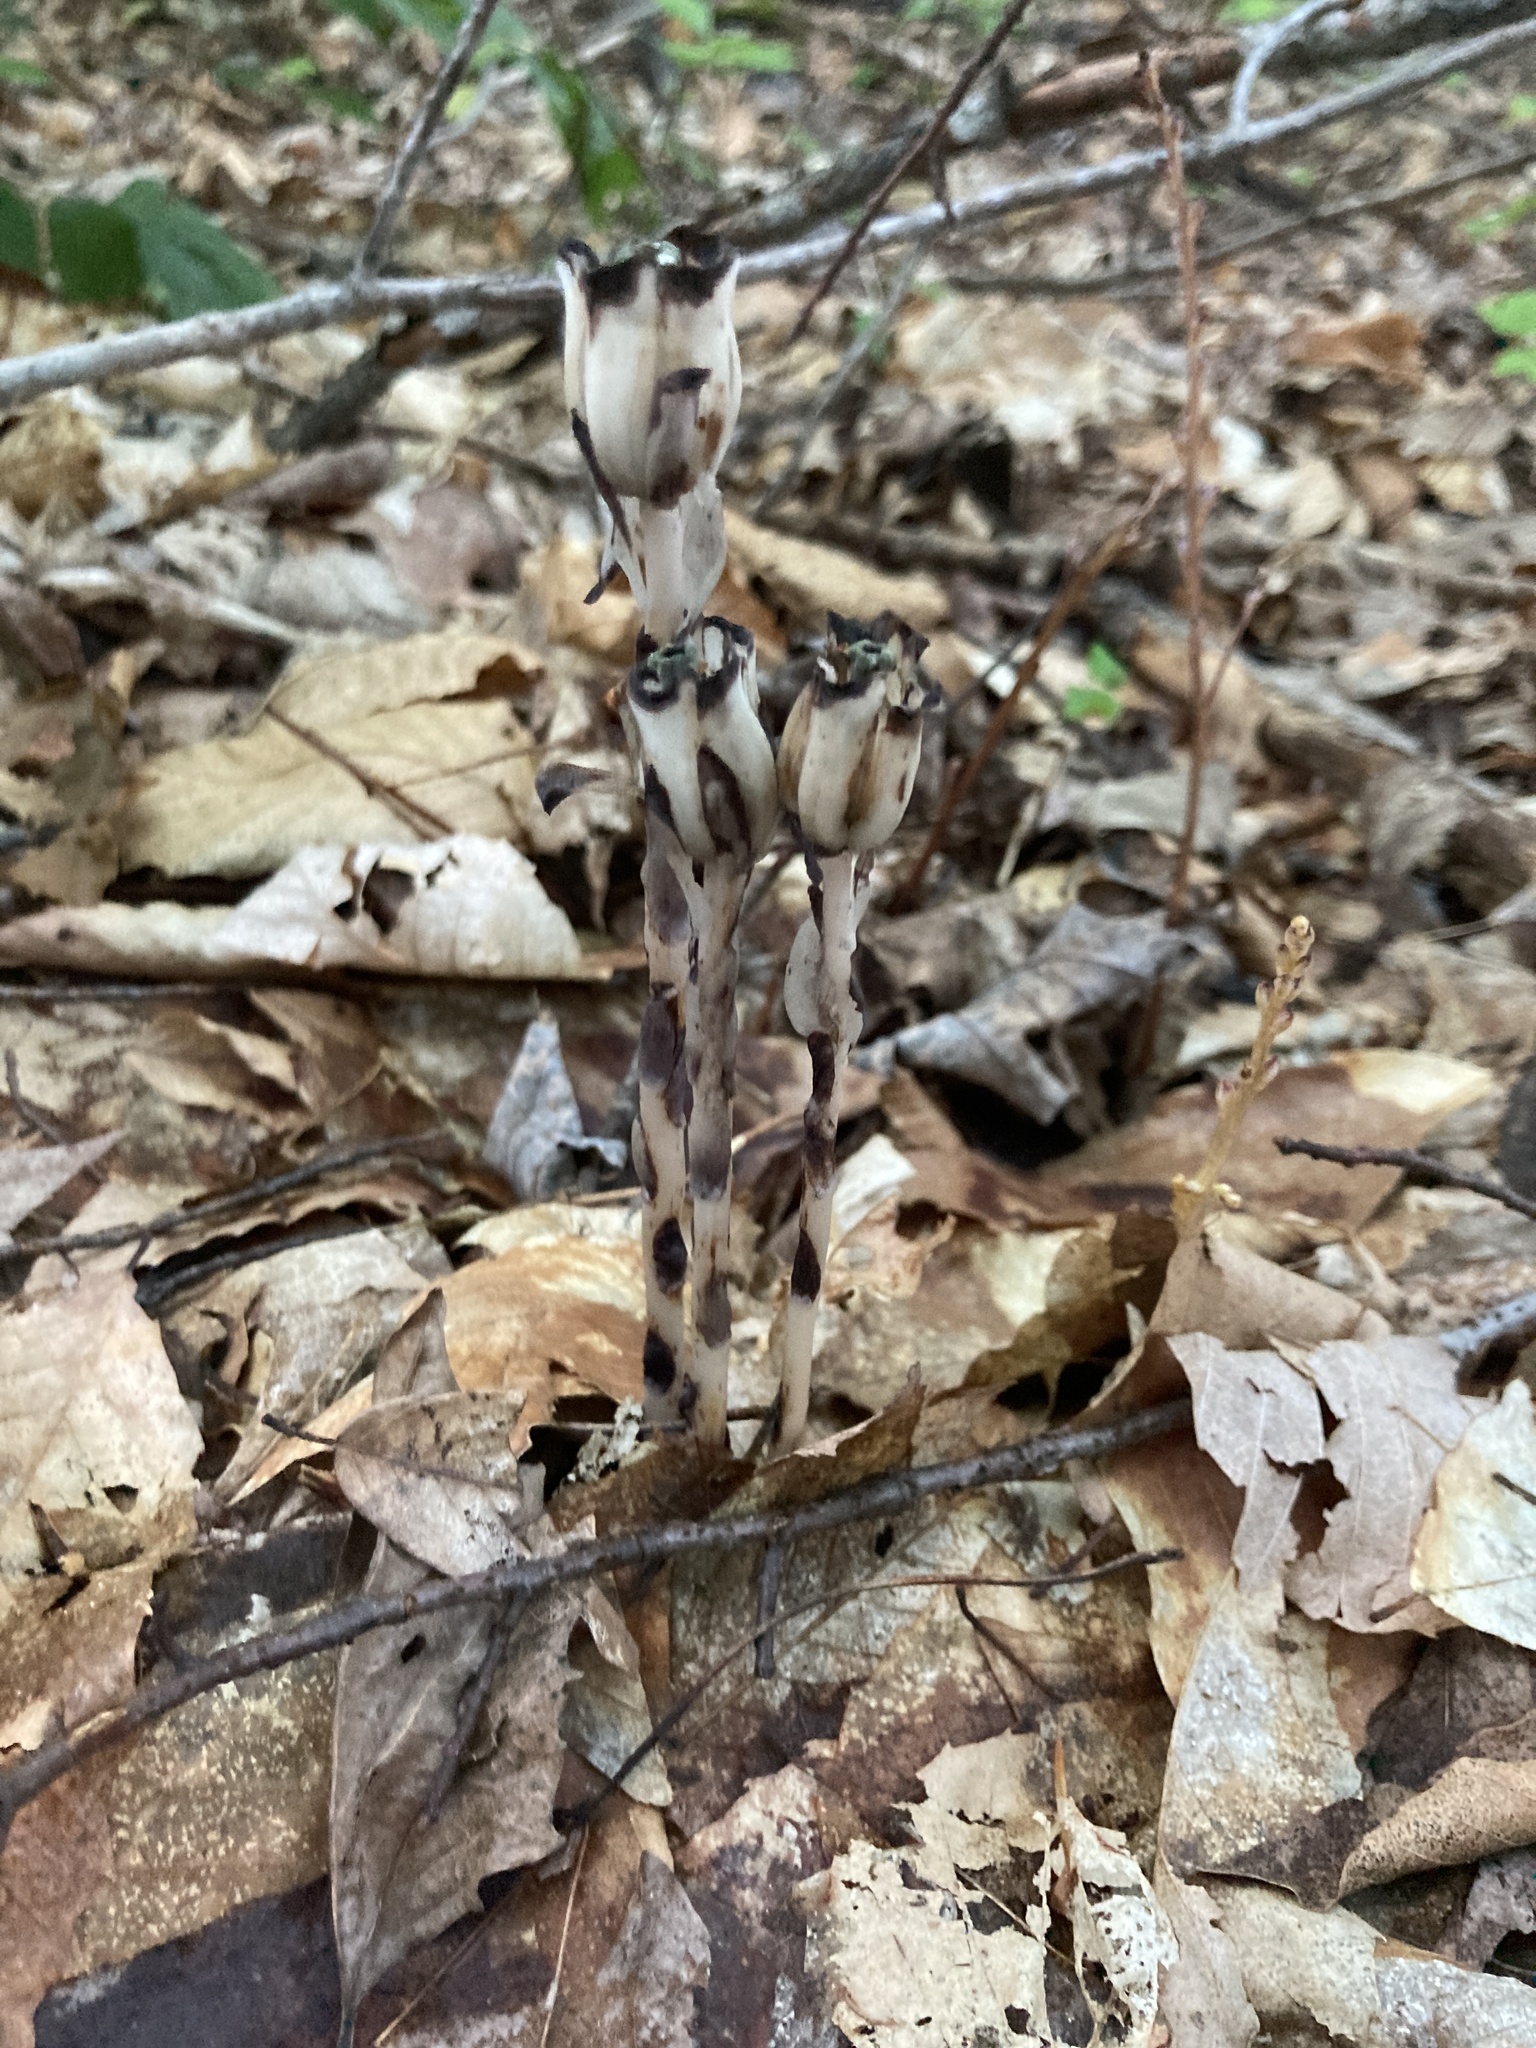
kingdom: Plantae
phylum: Tracheophyta
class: Magnoliopsida
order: Ericales
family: Ericaceae
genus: Monotropa
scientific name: Monotropa uniflora
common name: Convulsion root
